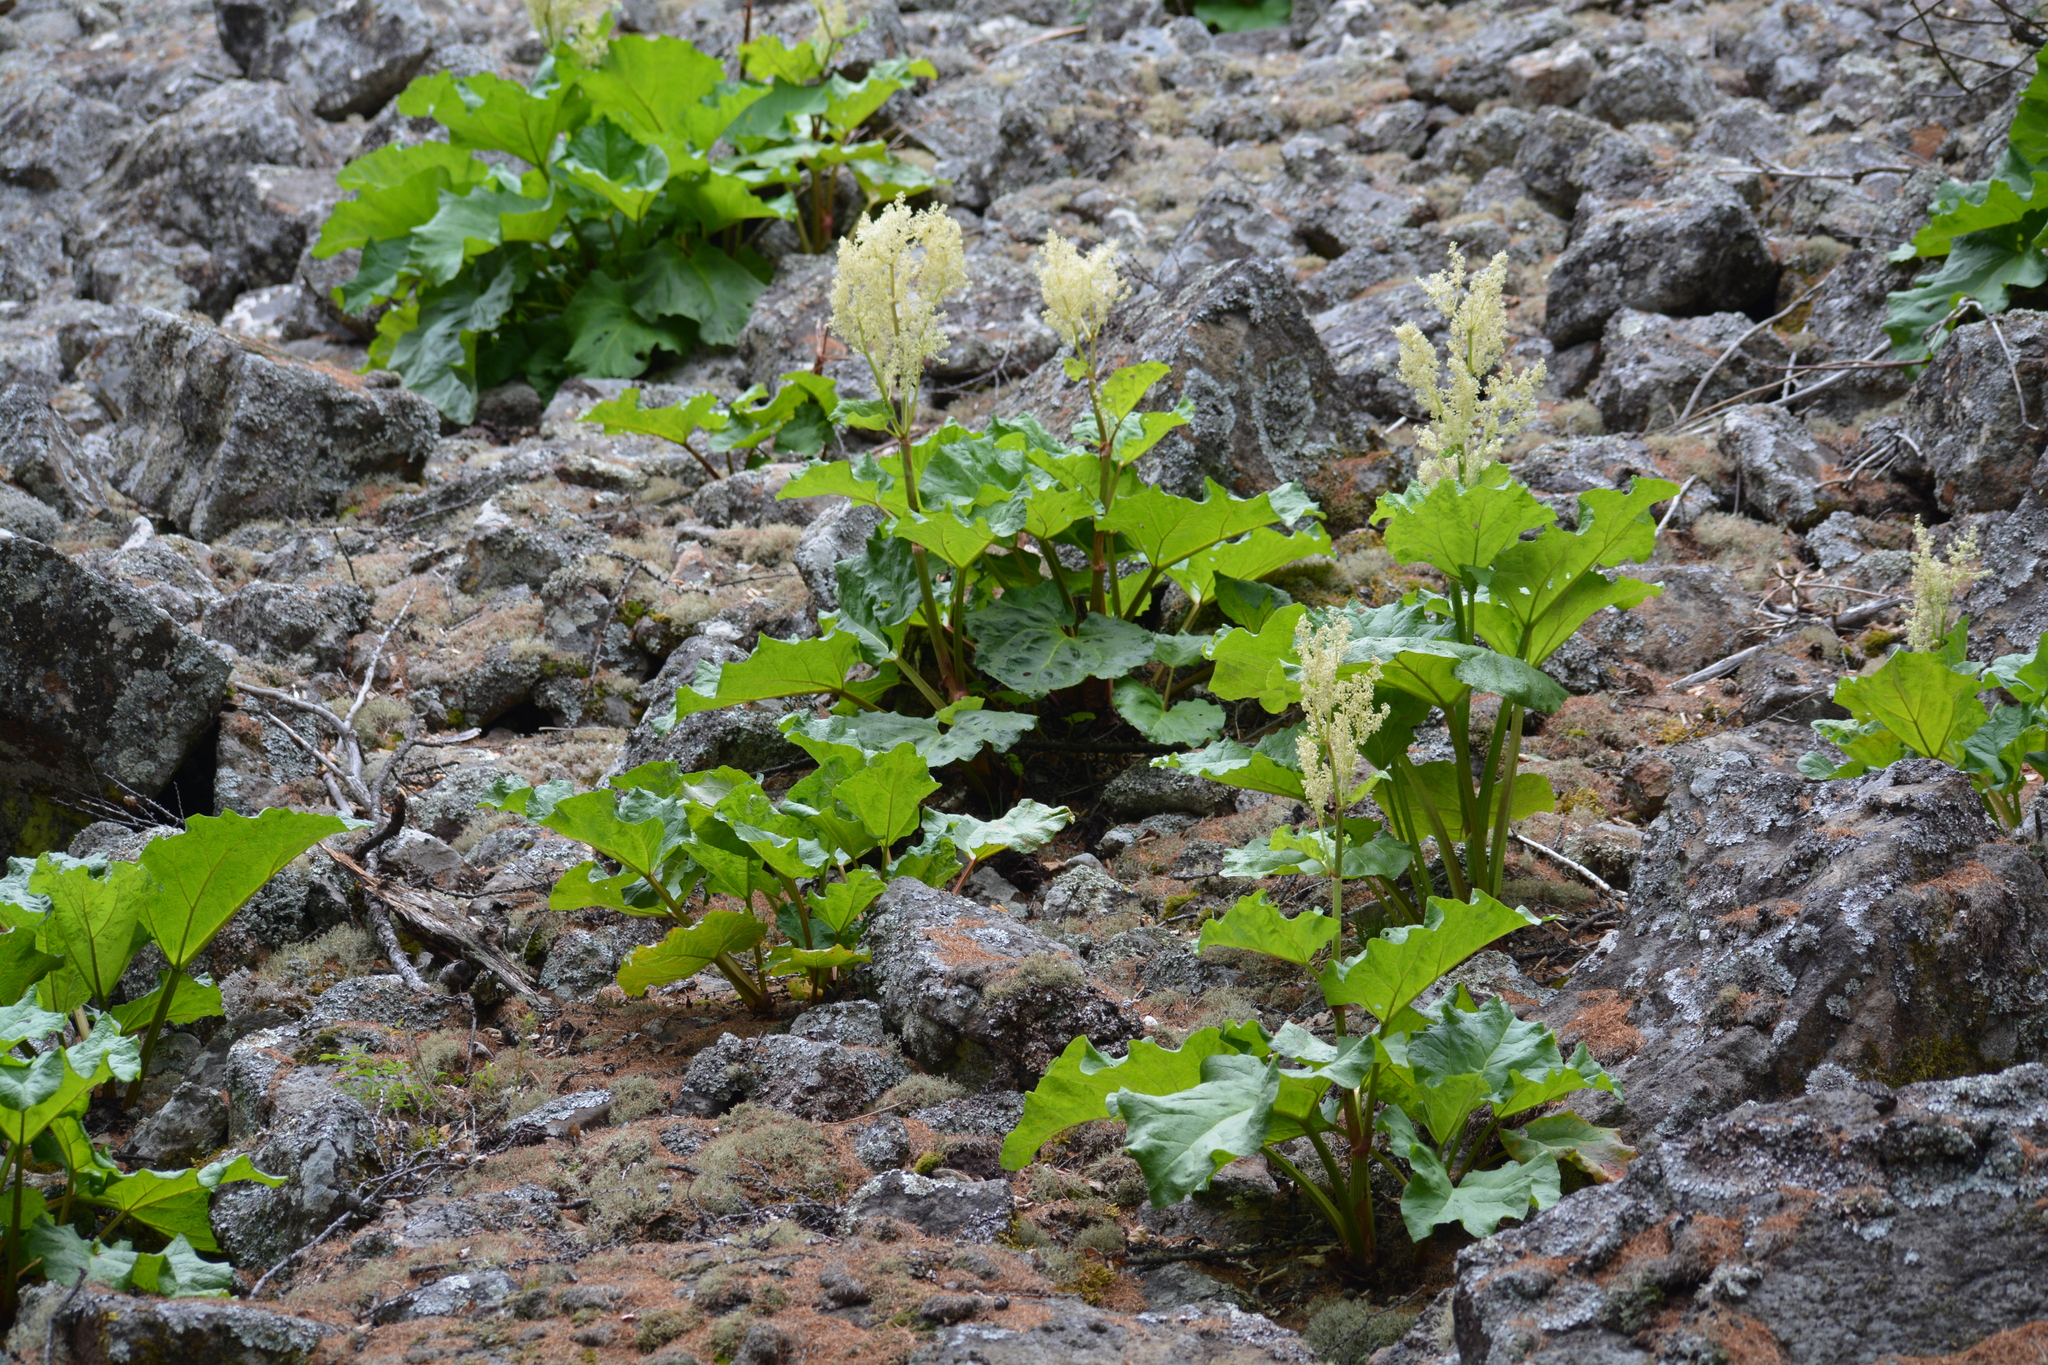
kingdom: Plantae
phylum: Tracheophyta
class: Magnoliopsida
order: Caryophyllales
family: Polygonaceae
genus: Rheum
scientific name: Rheum compactum
